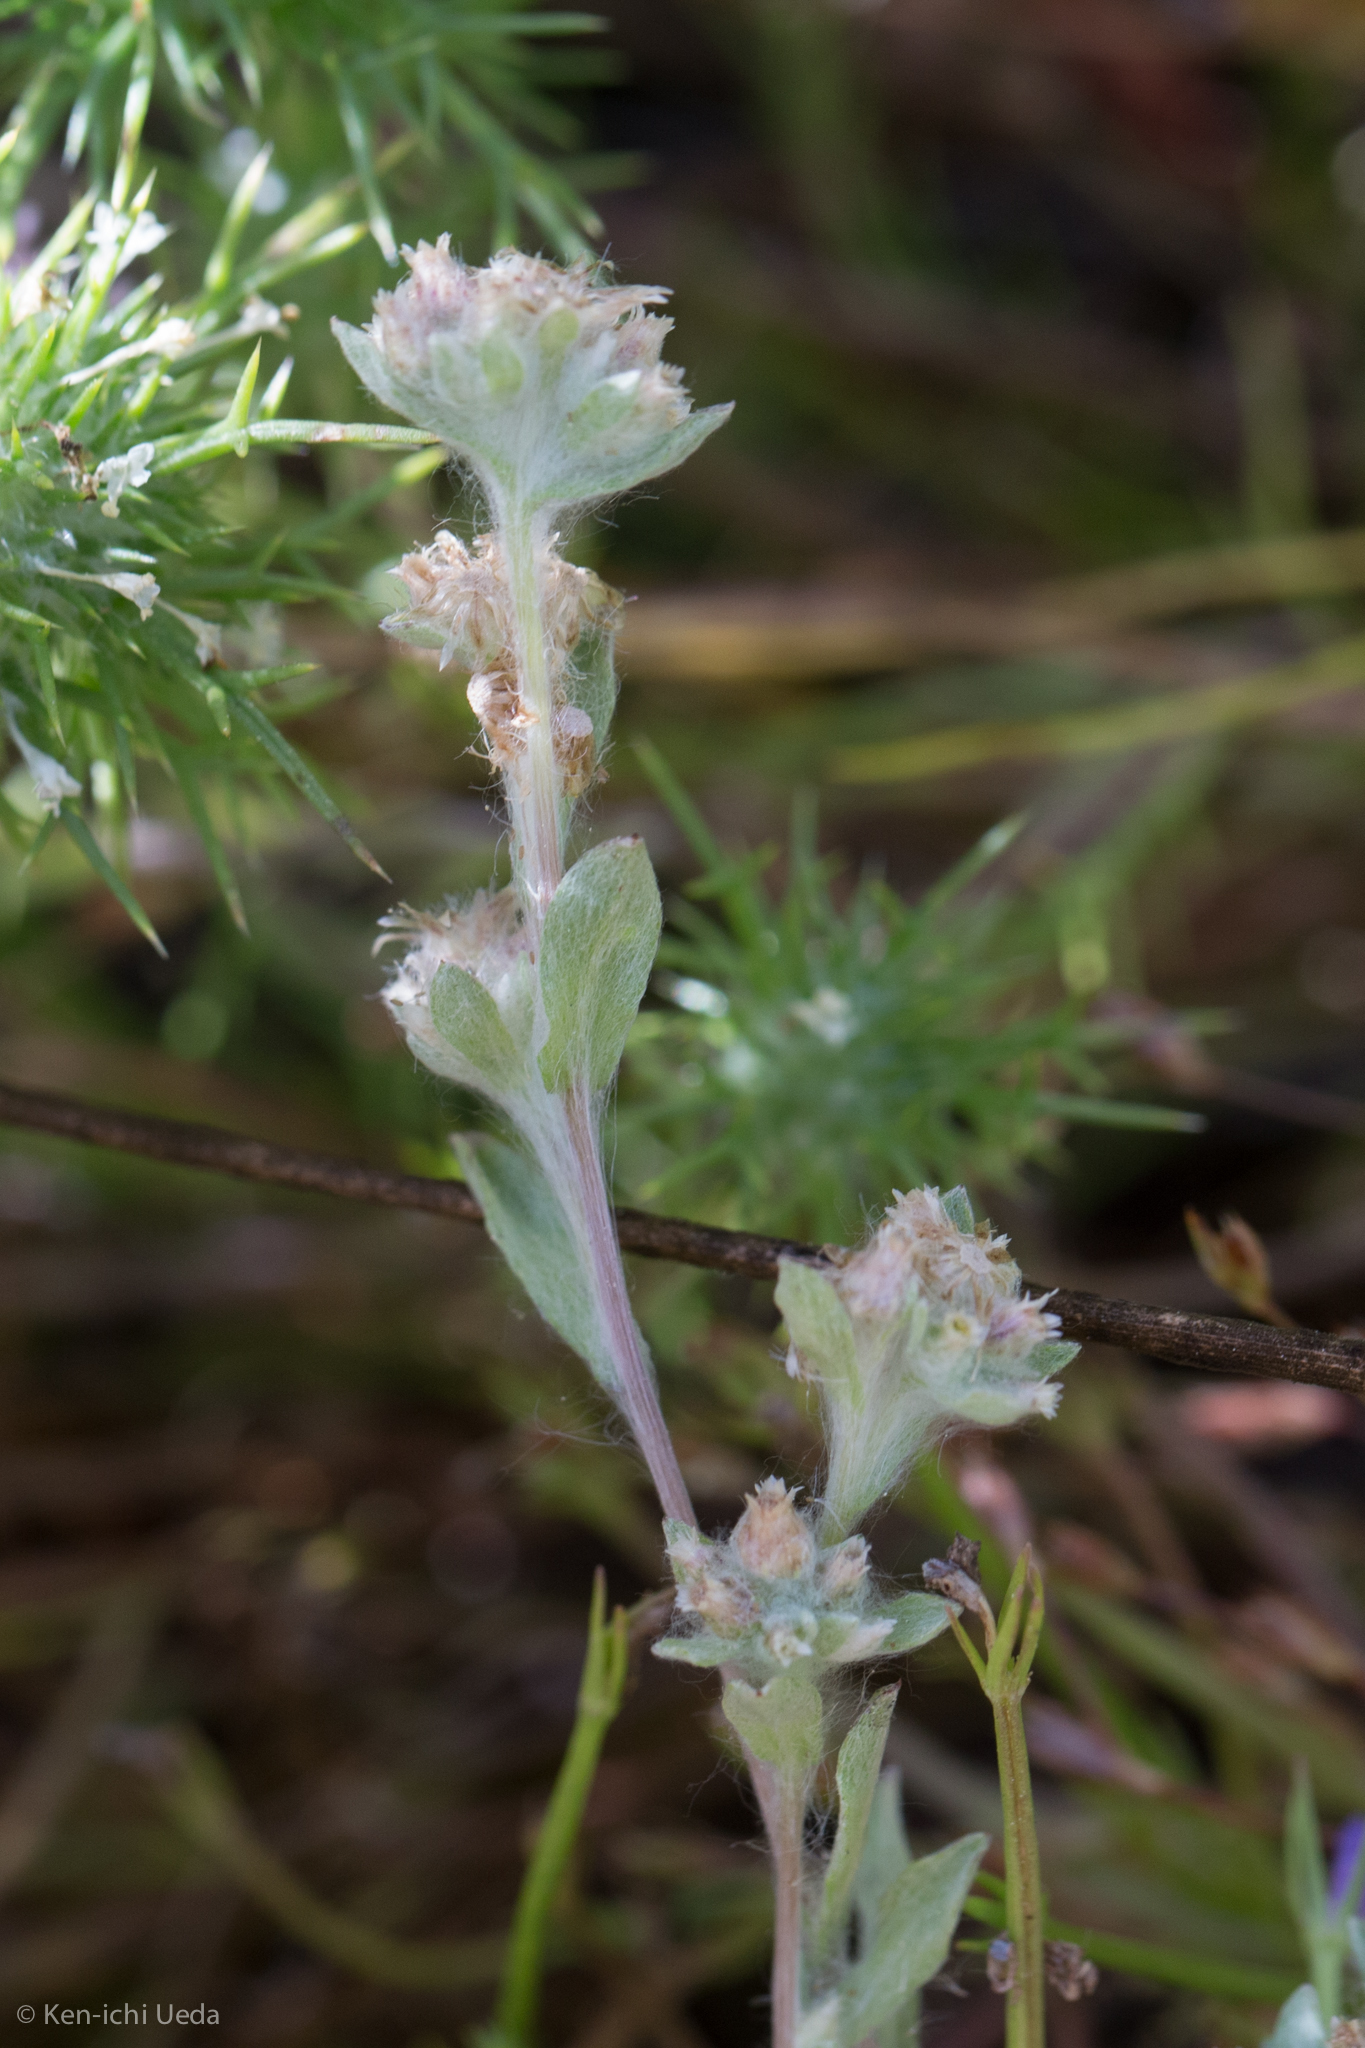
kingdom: Plantae
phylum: Tracheophyta
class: Magnoliopsida
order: Asterales
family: Asteraceae
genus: Gnaphalium
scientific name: Gnaphalium palustre
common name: Western marsh cudweed
